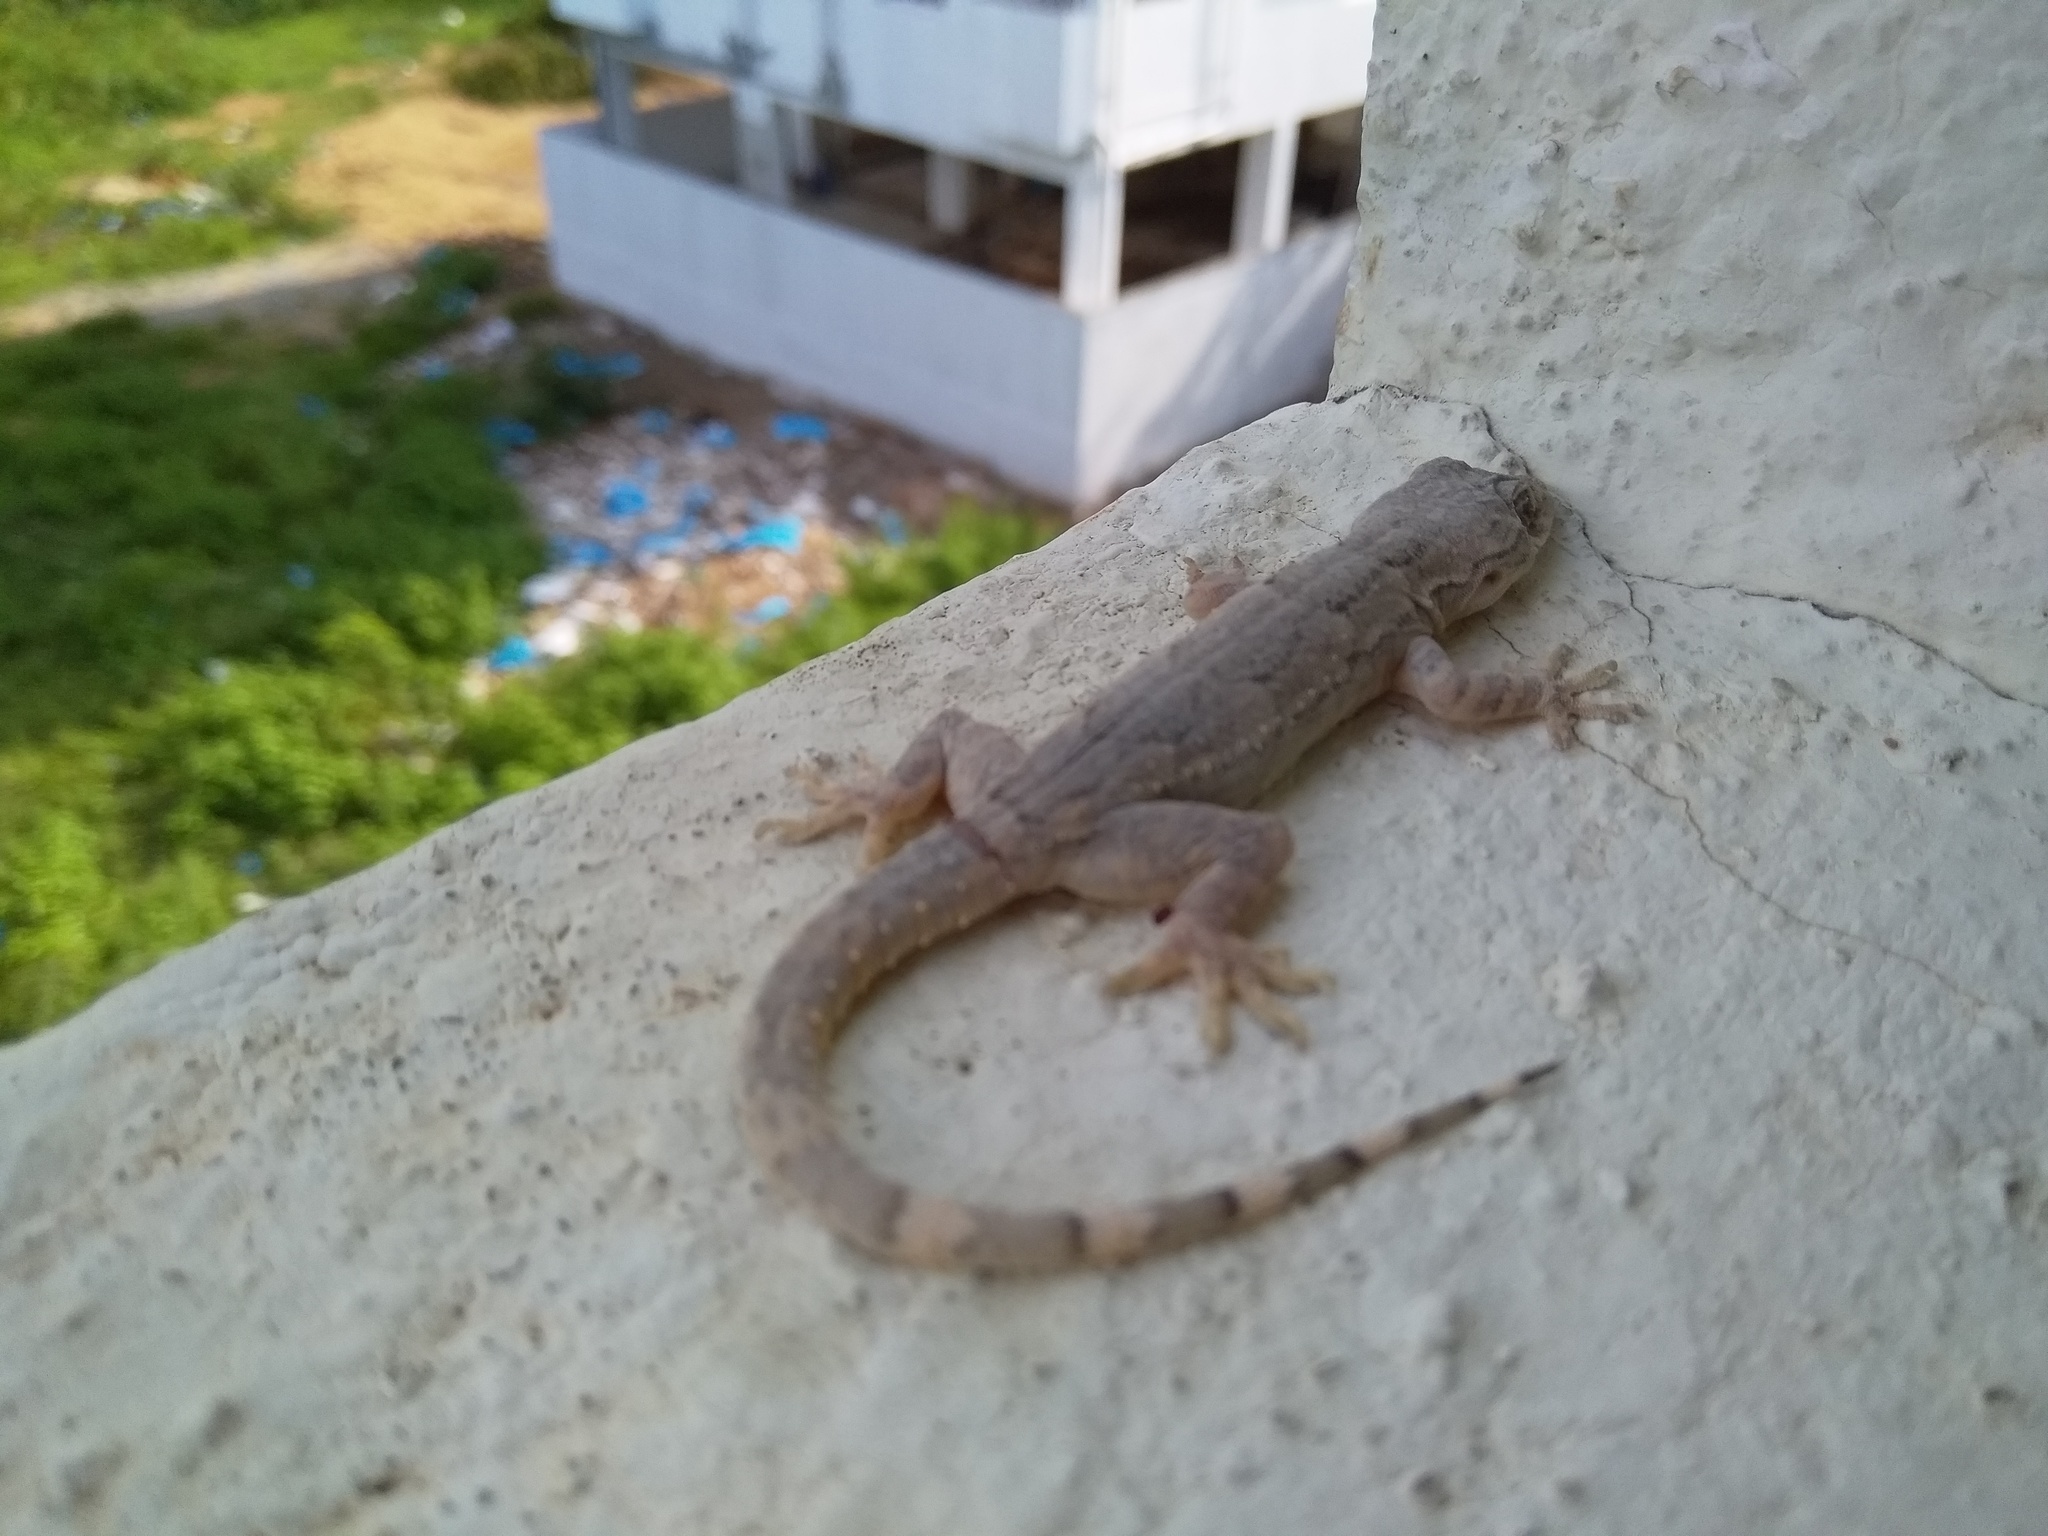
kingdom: Animalia
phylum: Chordata
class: Squamata
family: Gekkonidae
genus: Hemidactylus
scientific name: Hemidactylus leschenaultii
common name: Leschenault's leaf-toed gecko
